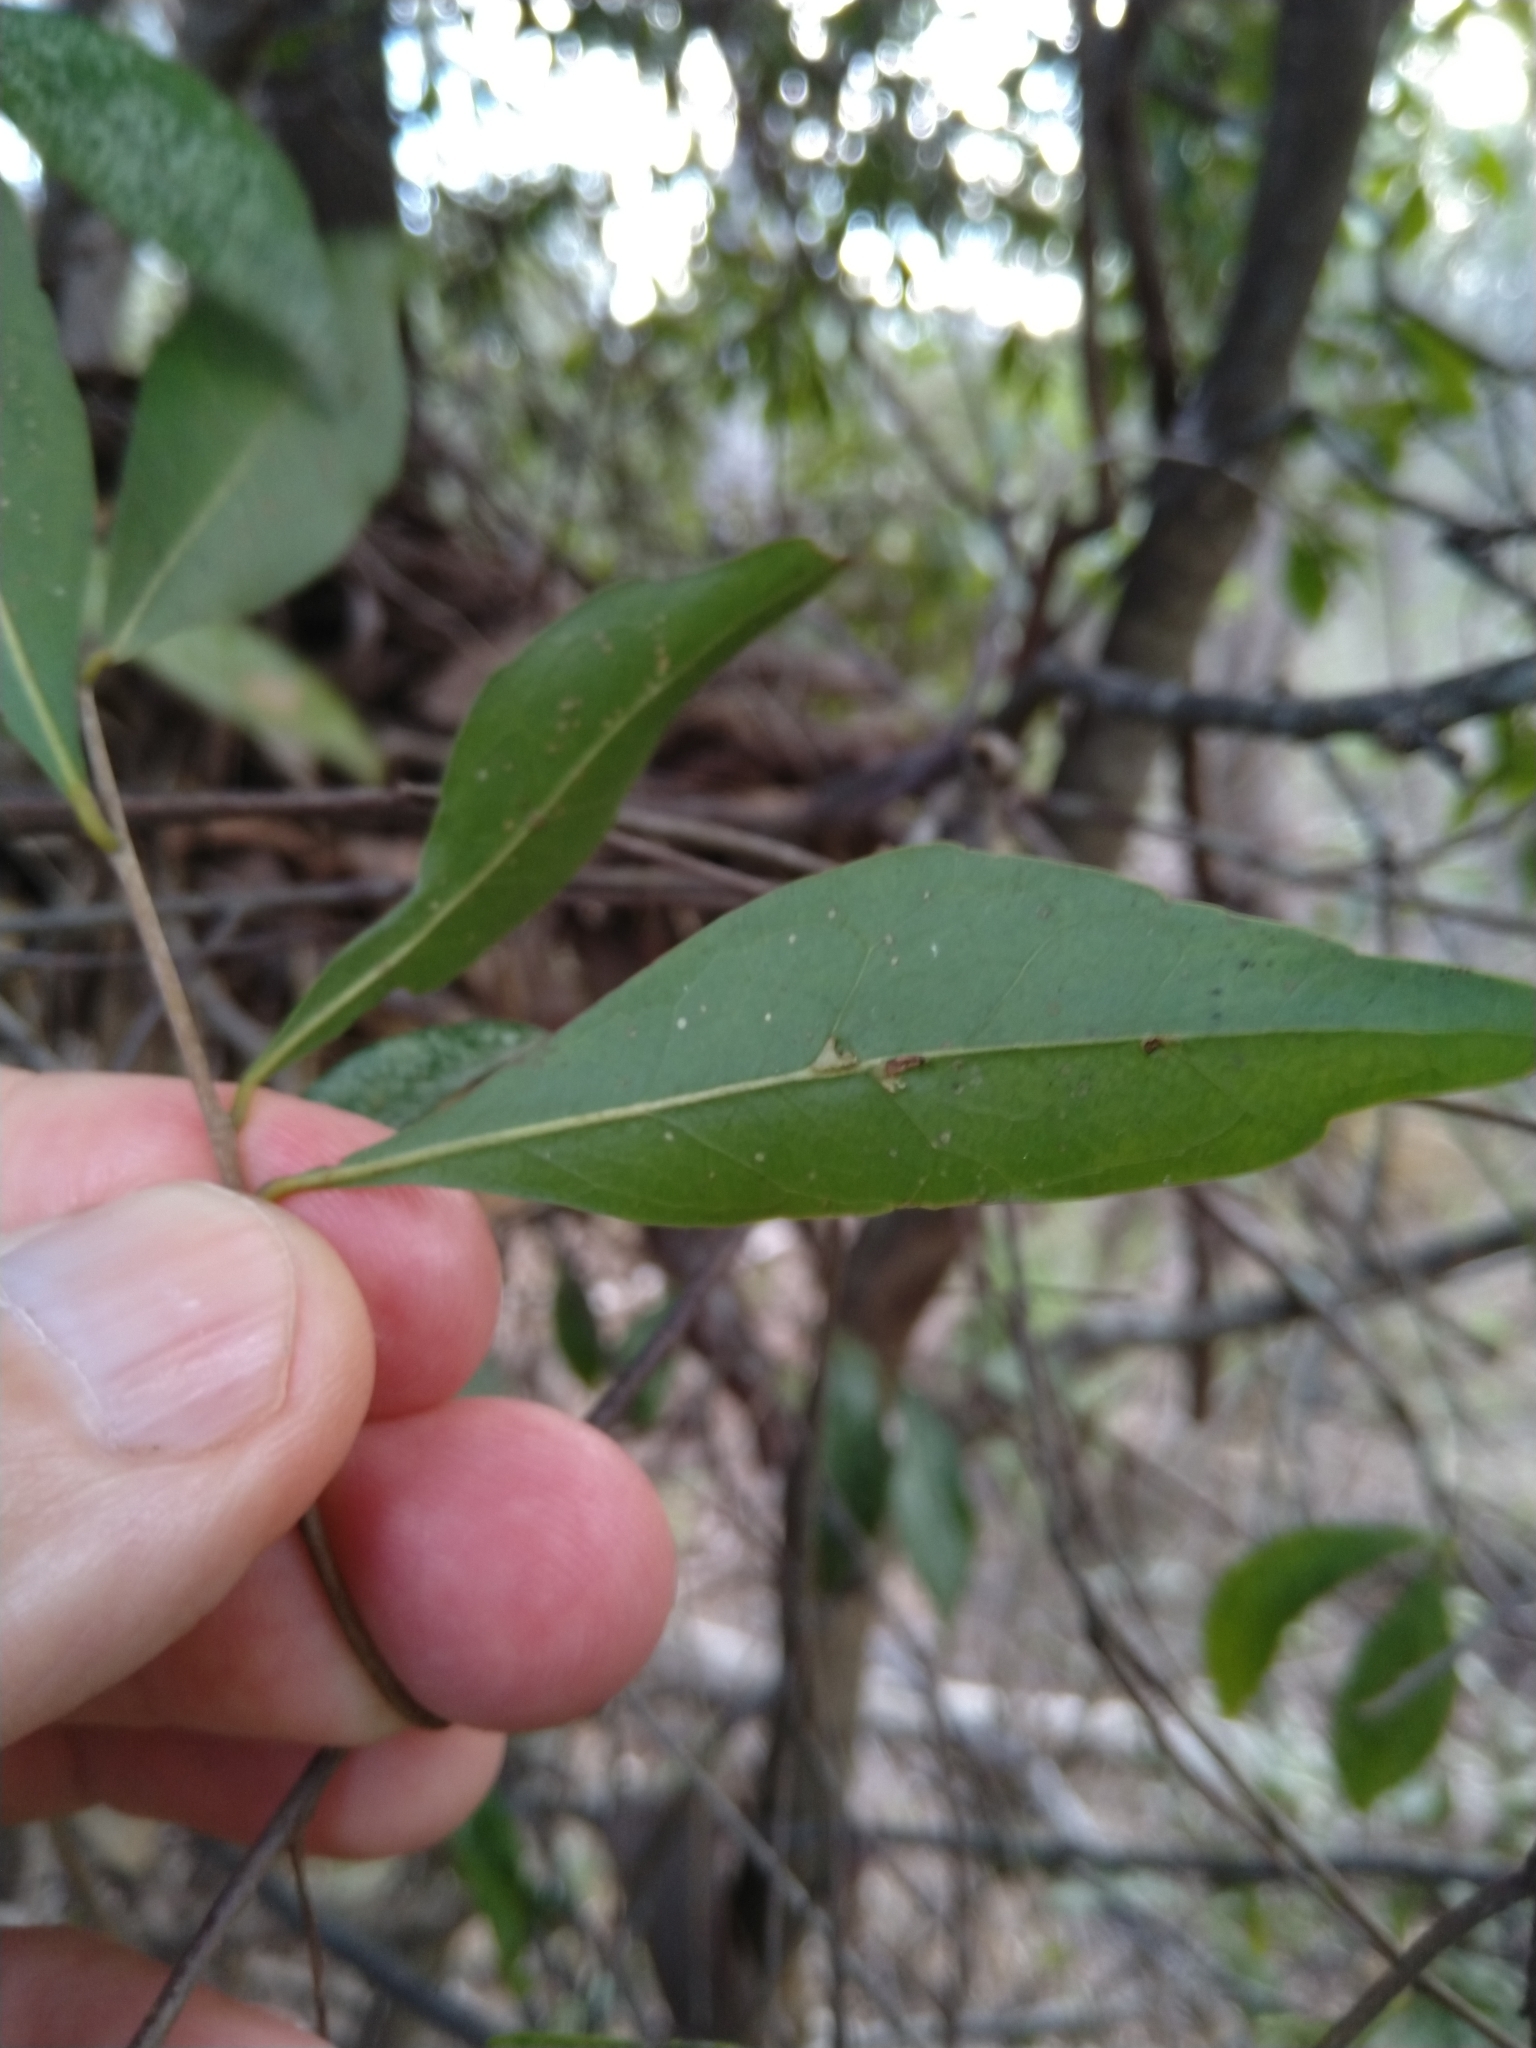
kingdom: Plantae
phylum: Tracheophyta
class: Magnoliopsida
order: Oxalidales
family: Elaeocarpaceae
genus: Elaeocarpus
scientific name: Elaeocarpus obovatus
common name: Freckled oliveberry
